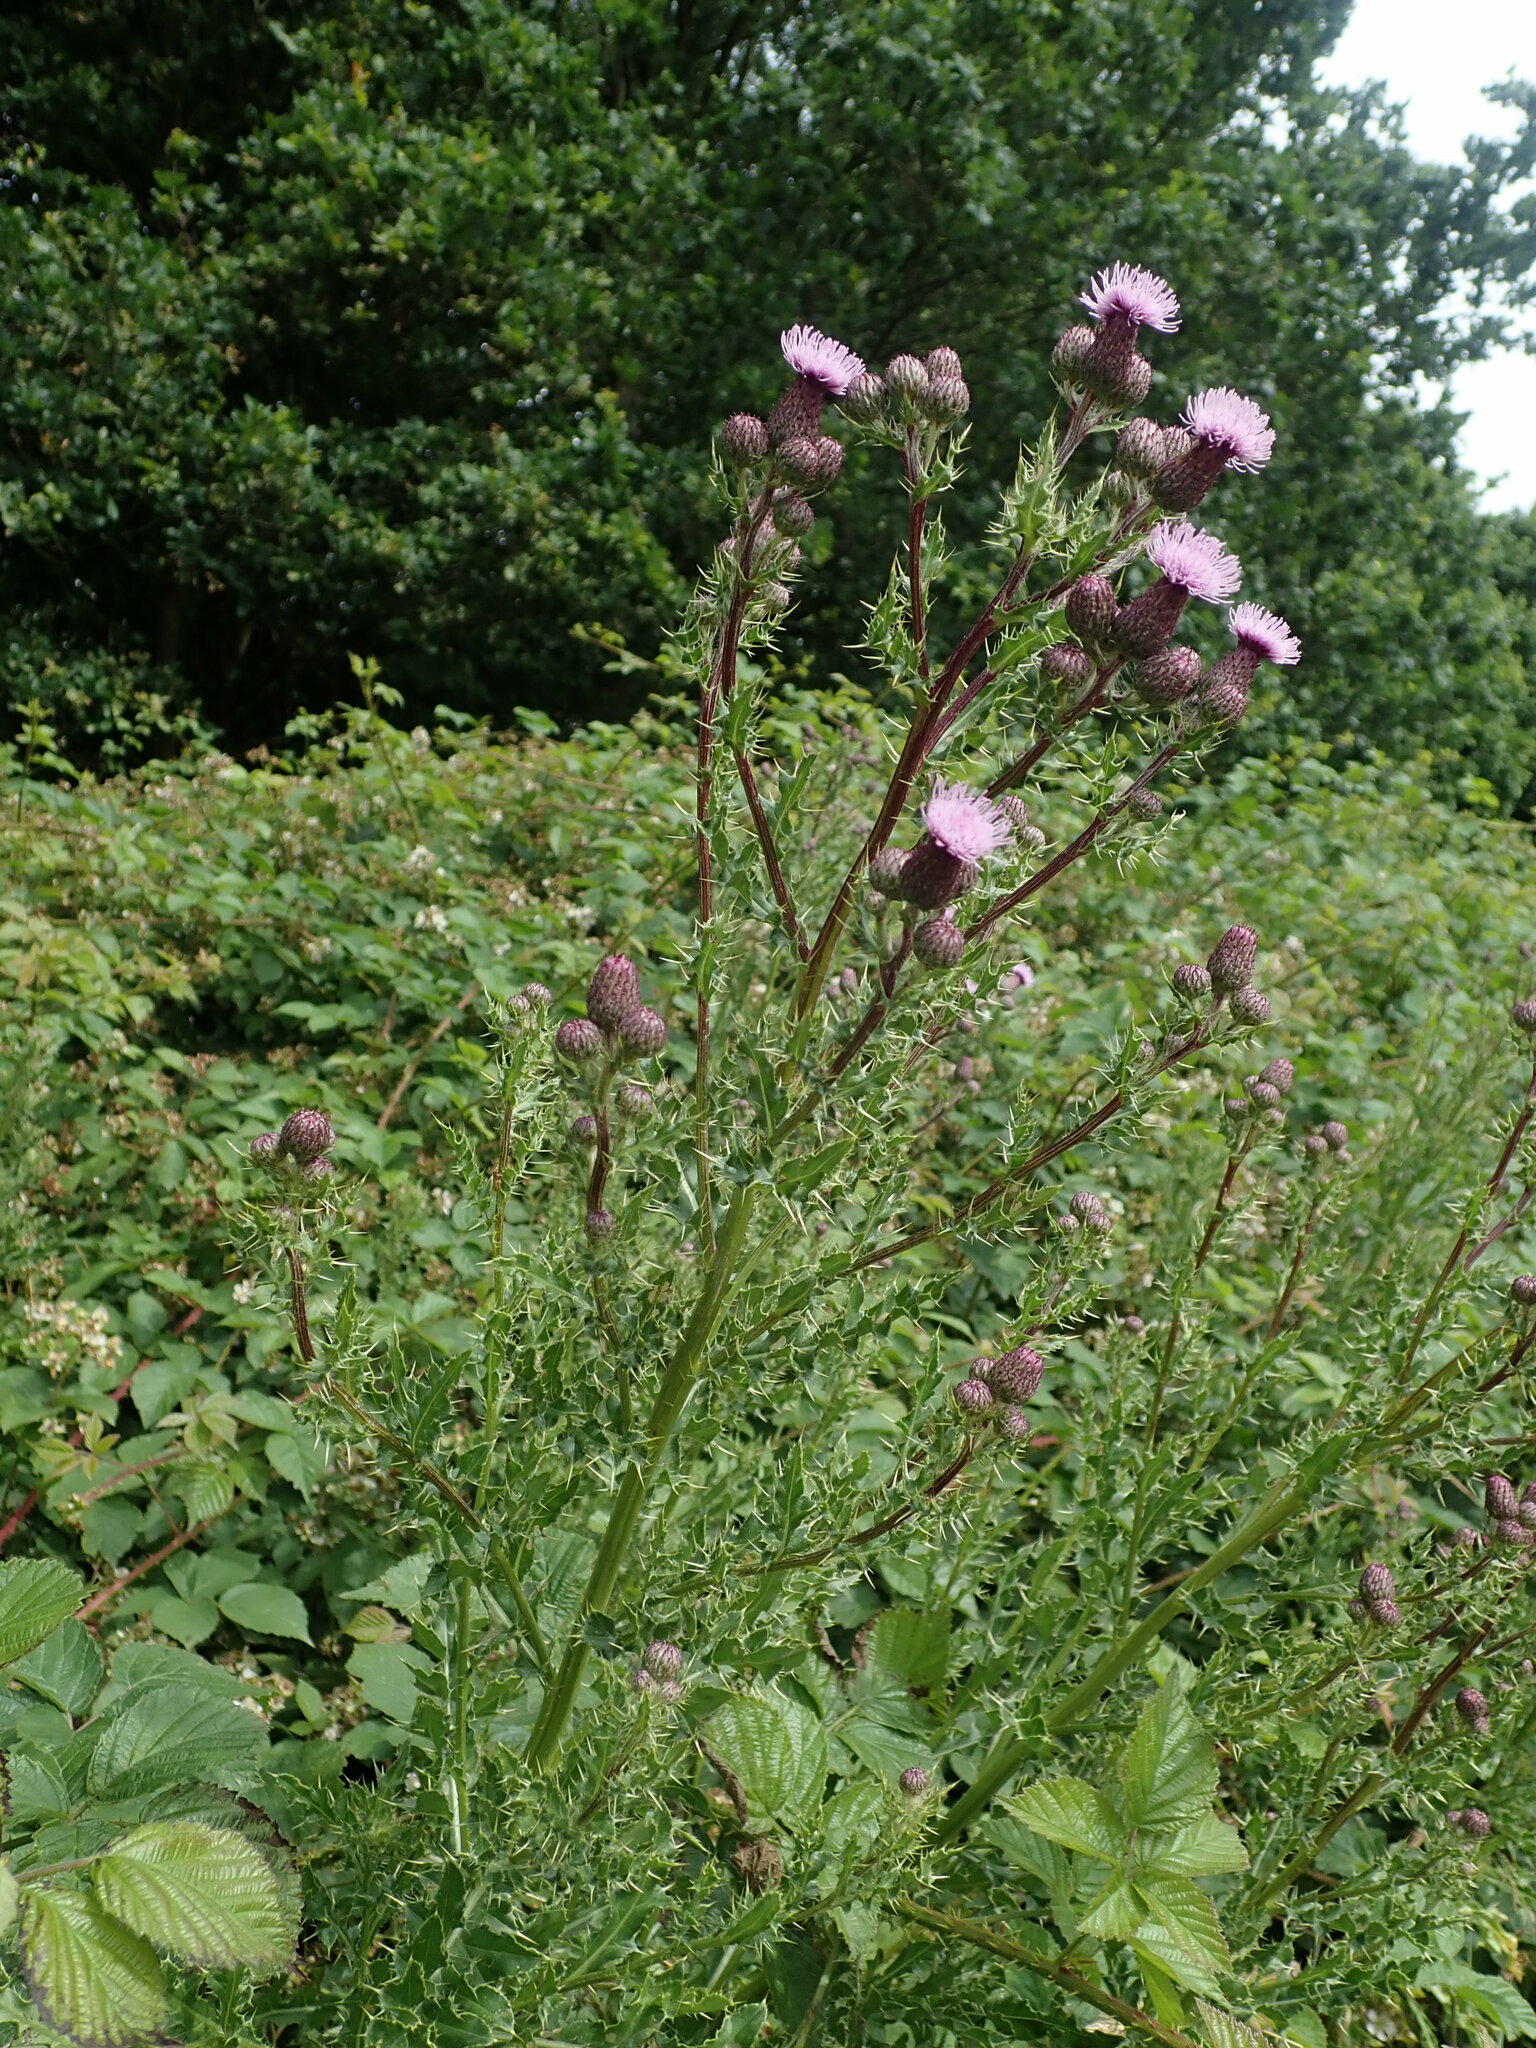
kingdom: Plantae
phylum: Tracheophyta
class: Magnoliopsida
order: Asterales
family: Asteraceae
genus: Cirsium
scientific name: Cirsium arvense
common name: Creeping thistle
